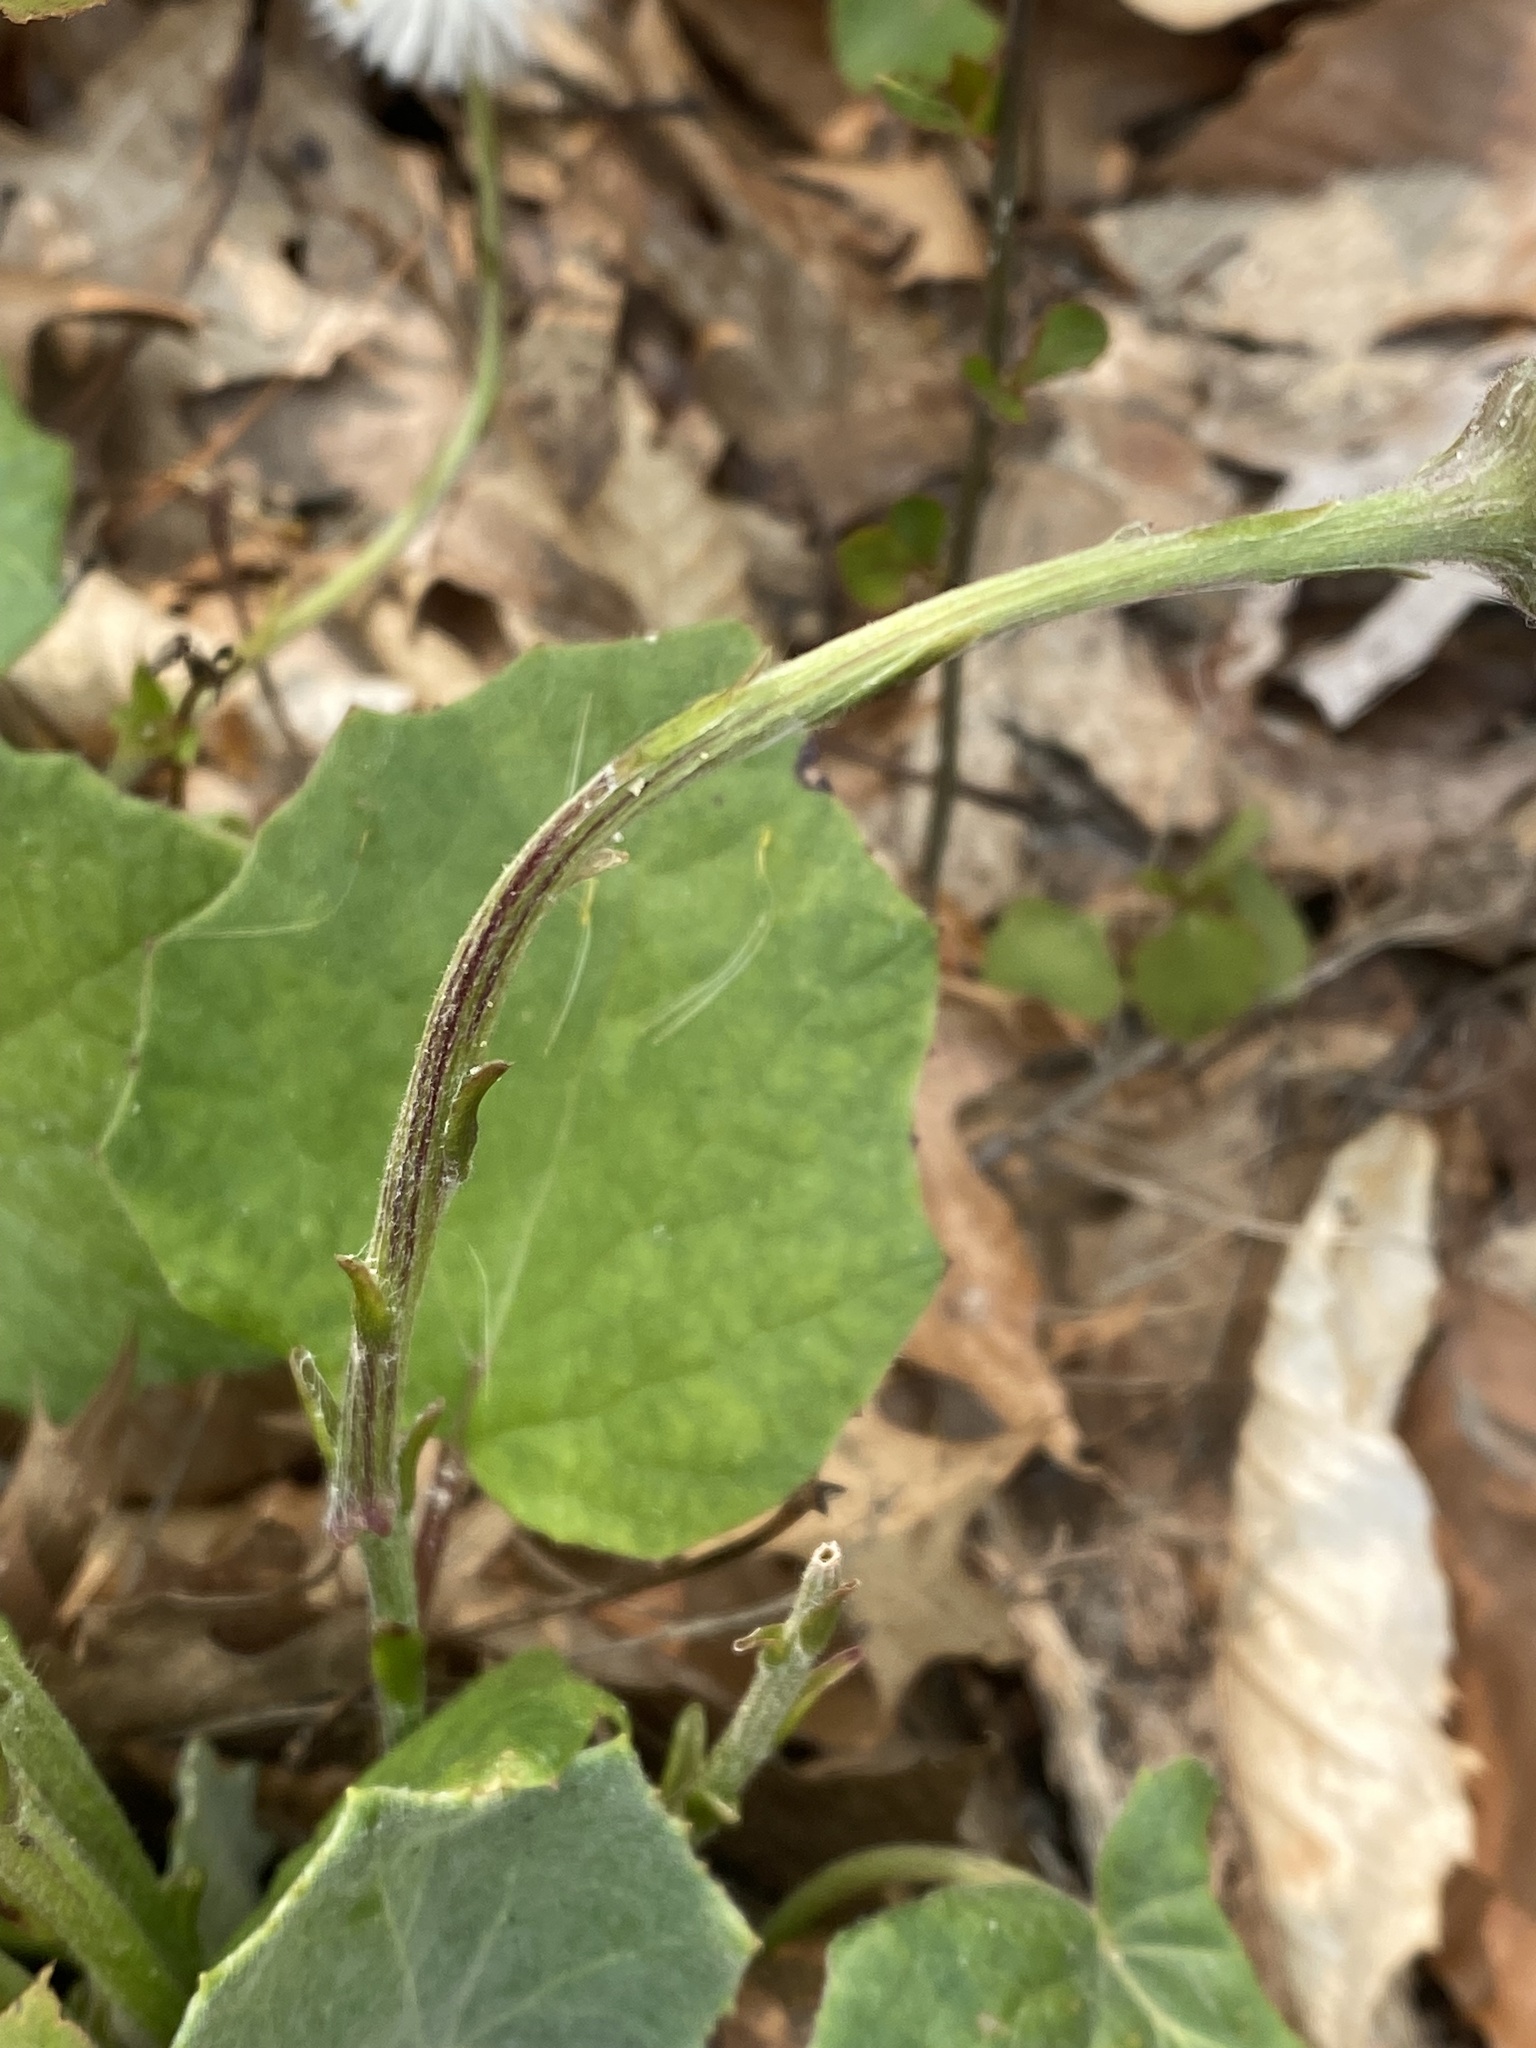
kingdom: Plantae
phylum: Tracheophyta
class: Magnoliopsida
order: Asterales
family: Asteraceae
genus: Tussilago
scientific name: Tussilago farfara
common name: Coltsfoot
